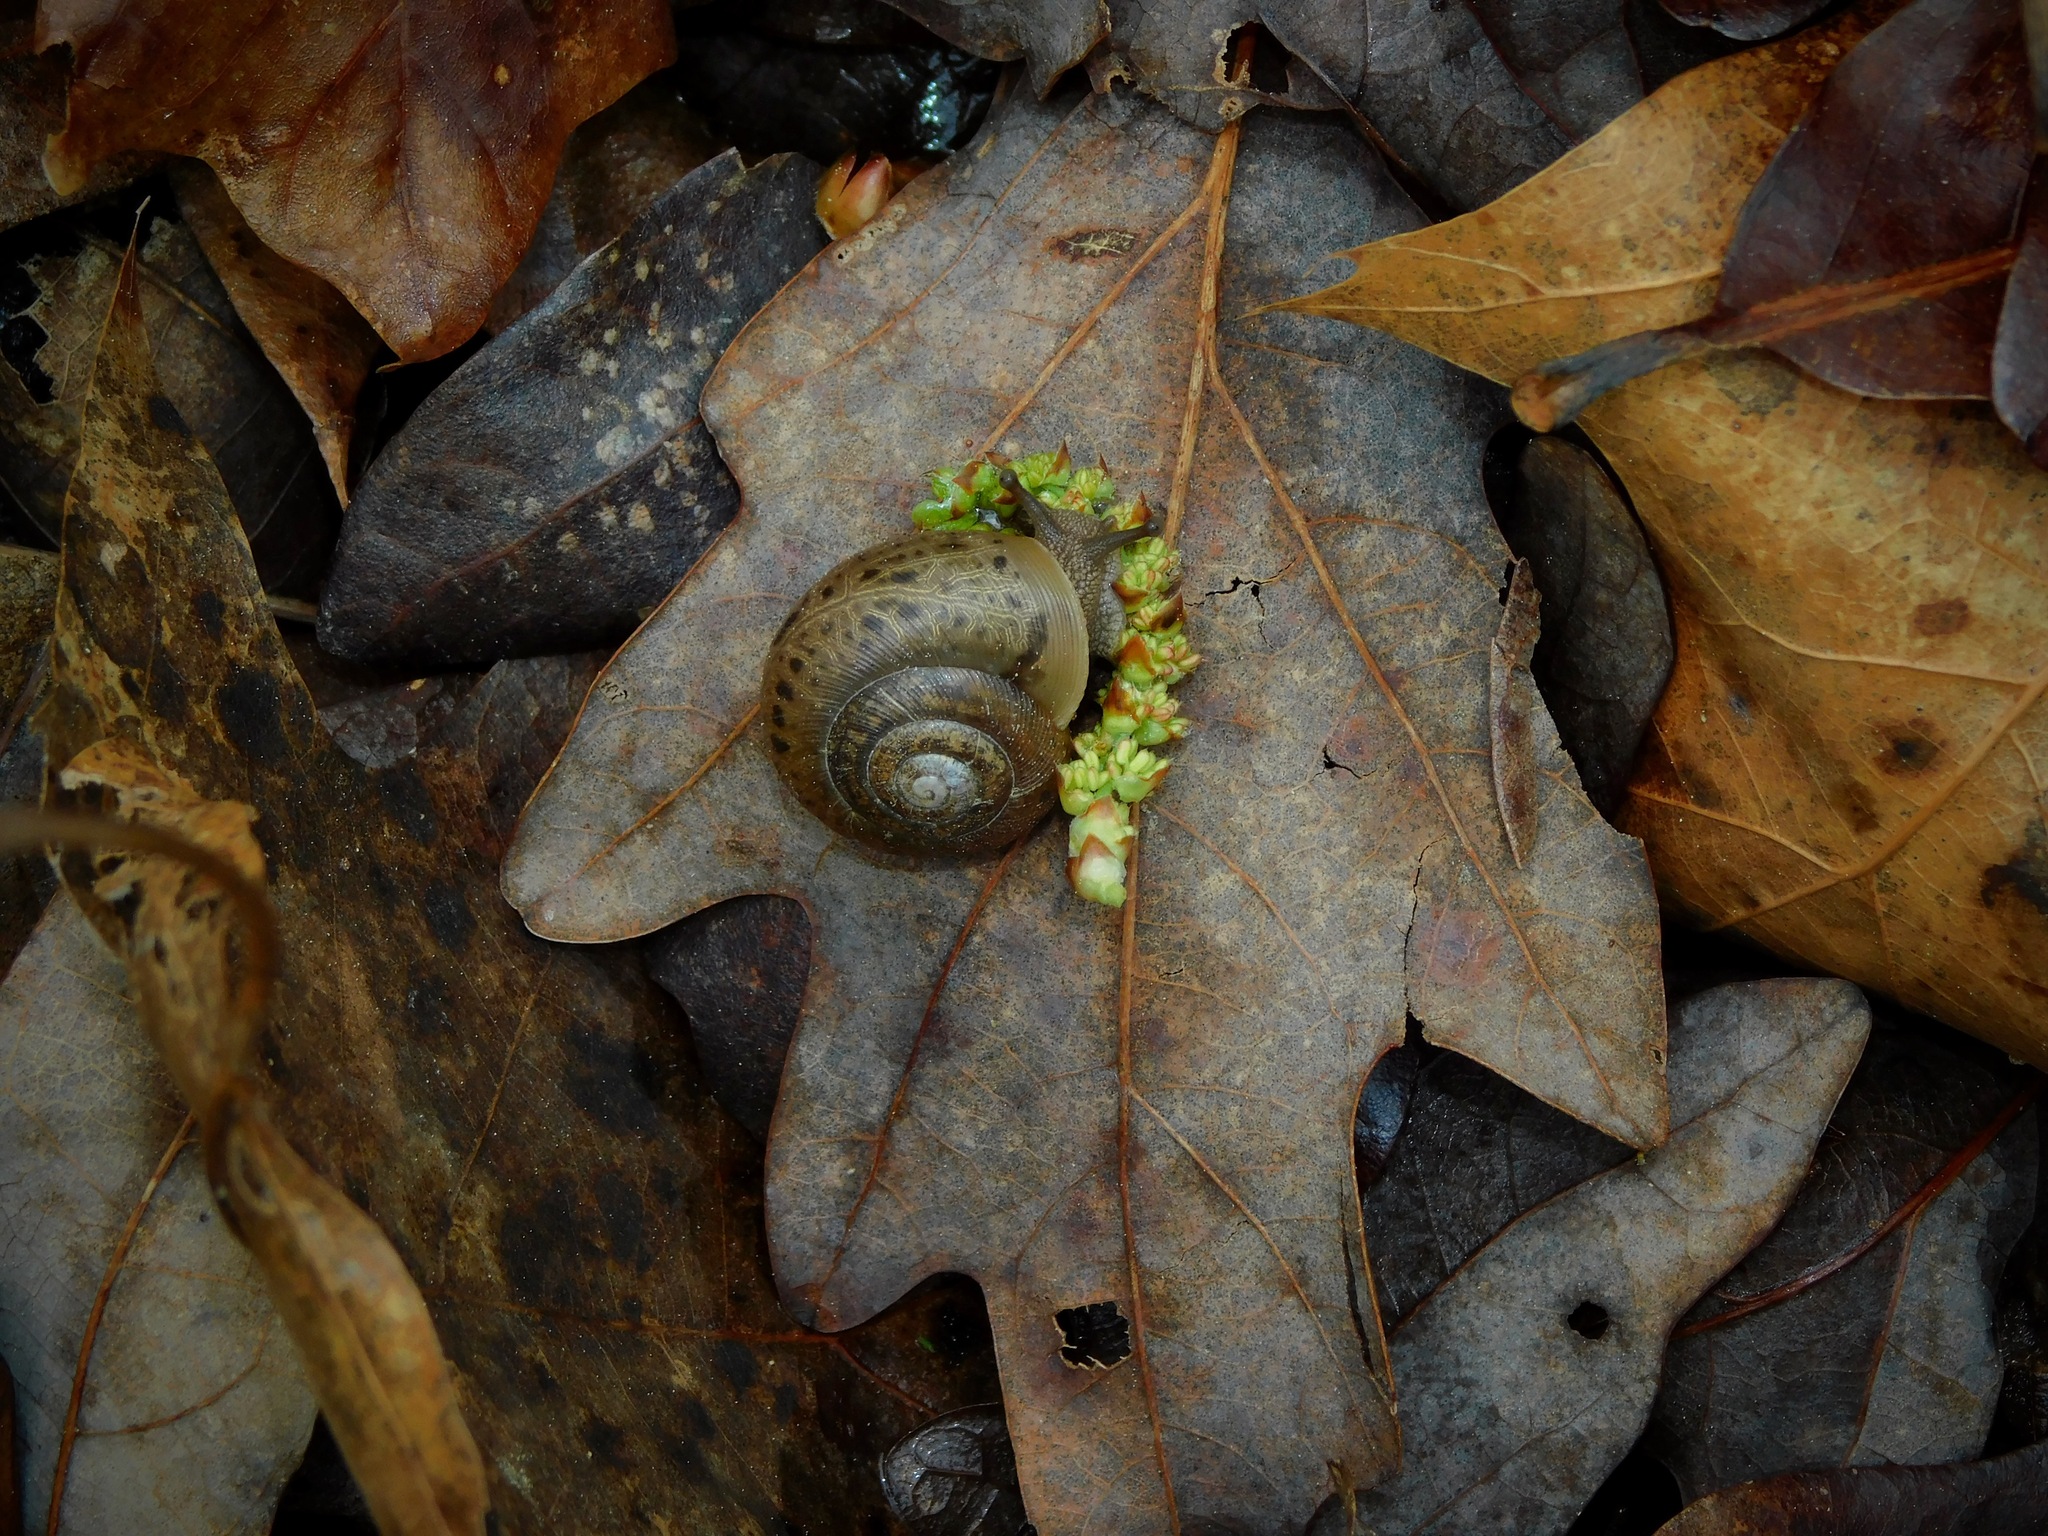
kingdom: Animalia
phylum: Mollusca
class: Gastropoda
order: Stylommatophora
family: Polygyridae
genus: Mesodon
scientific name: Mesodon thyroidus
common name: White-lip globe
